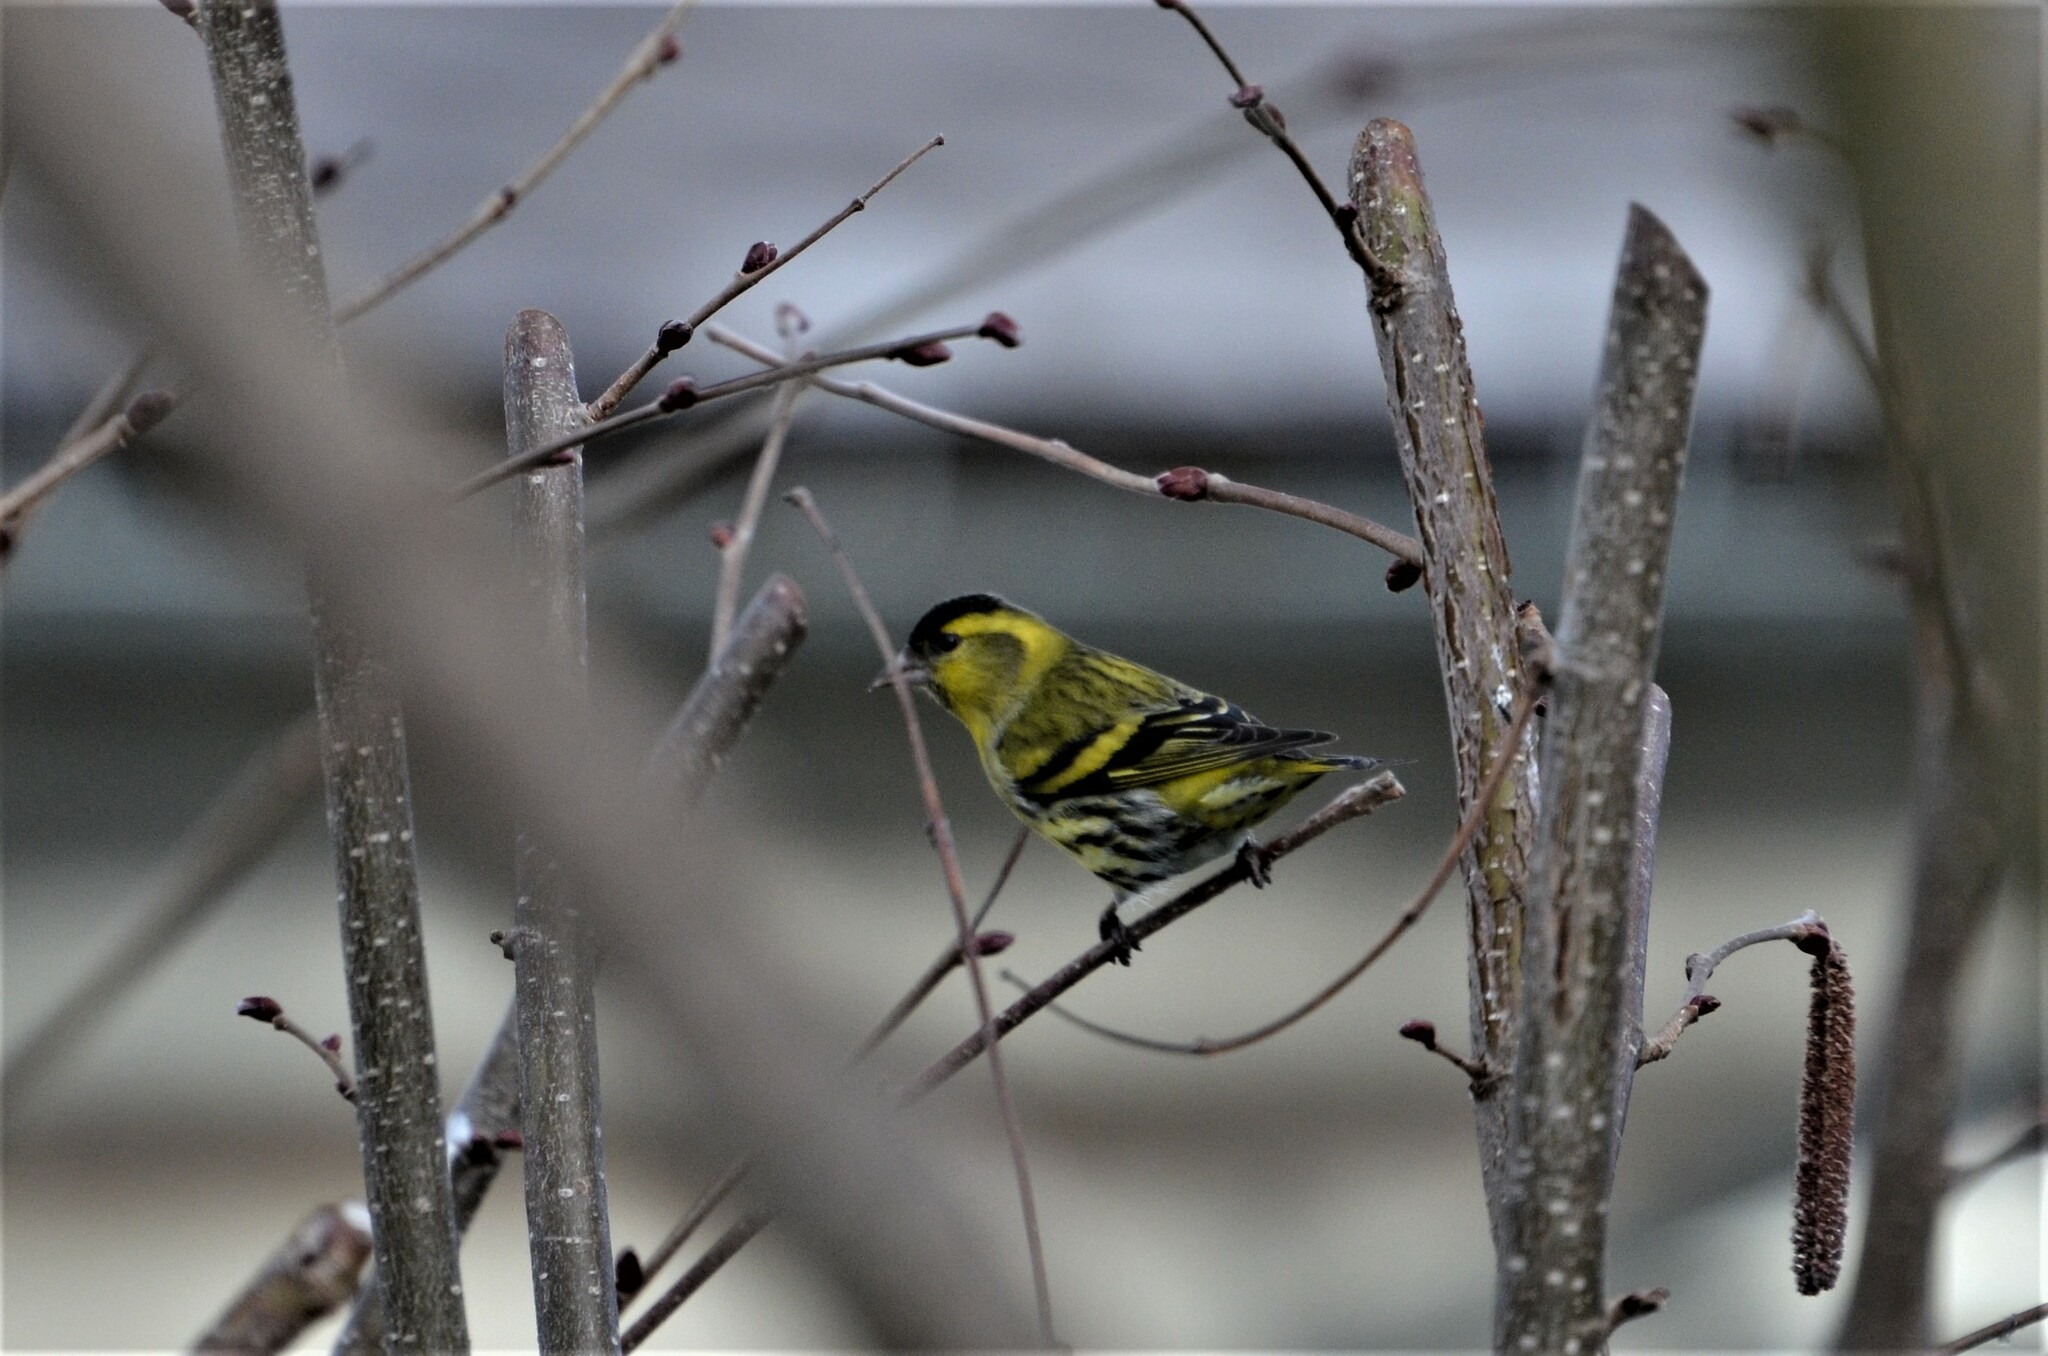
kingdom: Animalia
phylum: Chordata
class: Aves
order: Passeriformes
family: Fringillidae
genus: Spinus
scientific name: Spinus spinus
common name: Eurasian siskin
